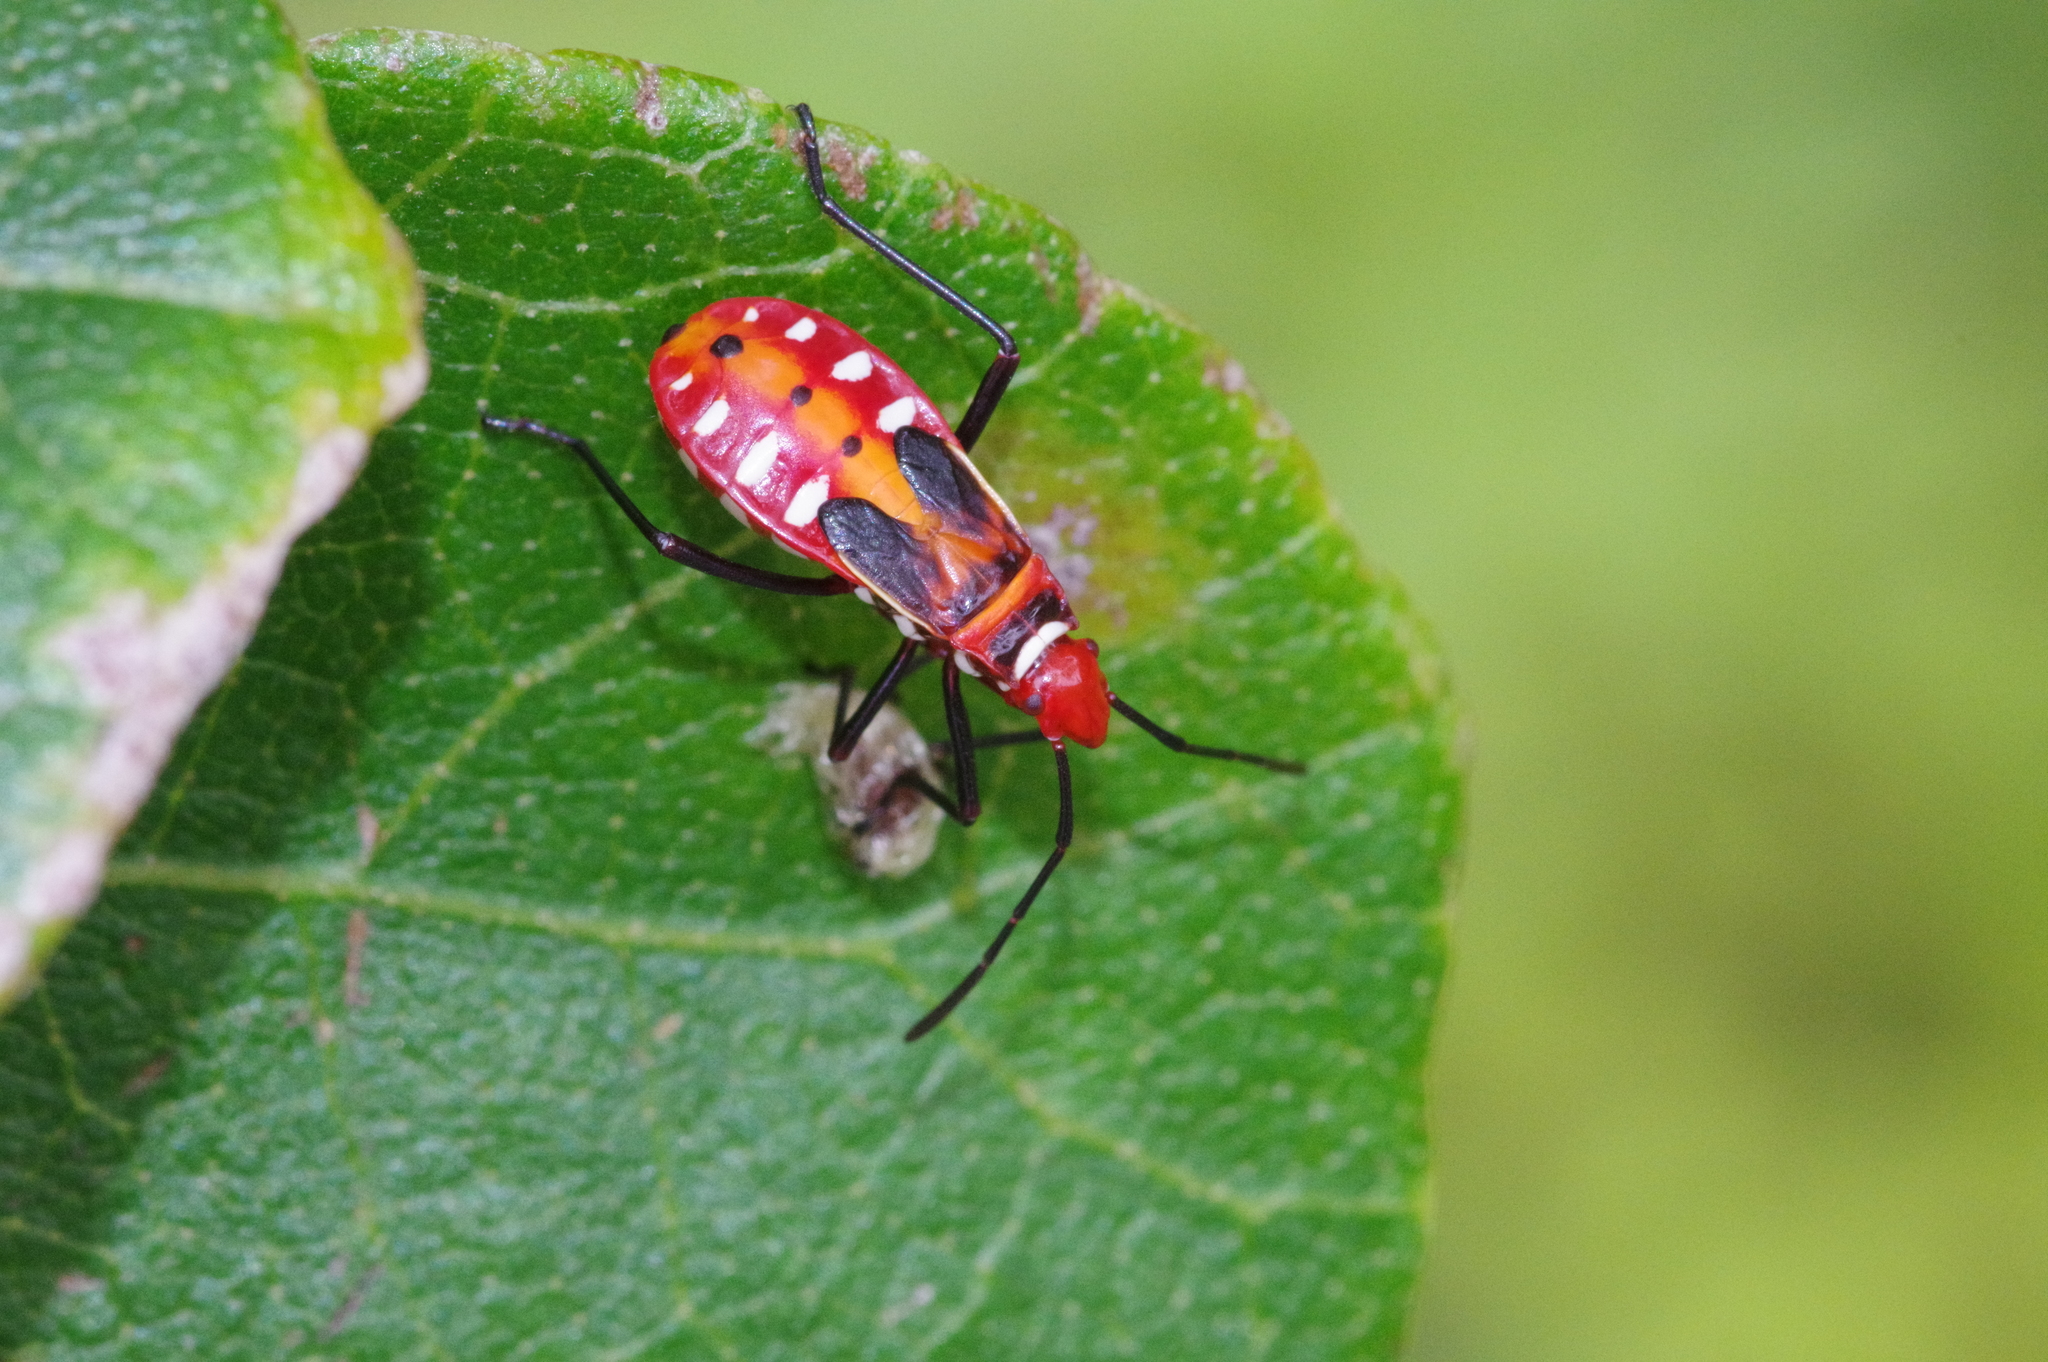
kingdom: Animalia
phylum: Arthropoda
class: Insecta
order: Hemiptera
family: Pyrrhocoridae
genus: Dysdercus
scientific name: Dysdercus cingulatus
